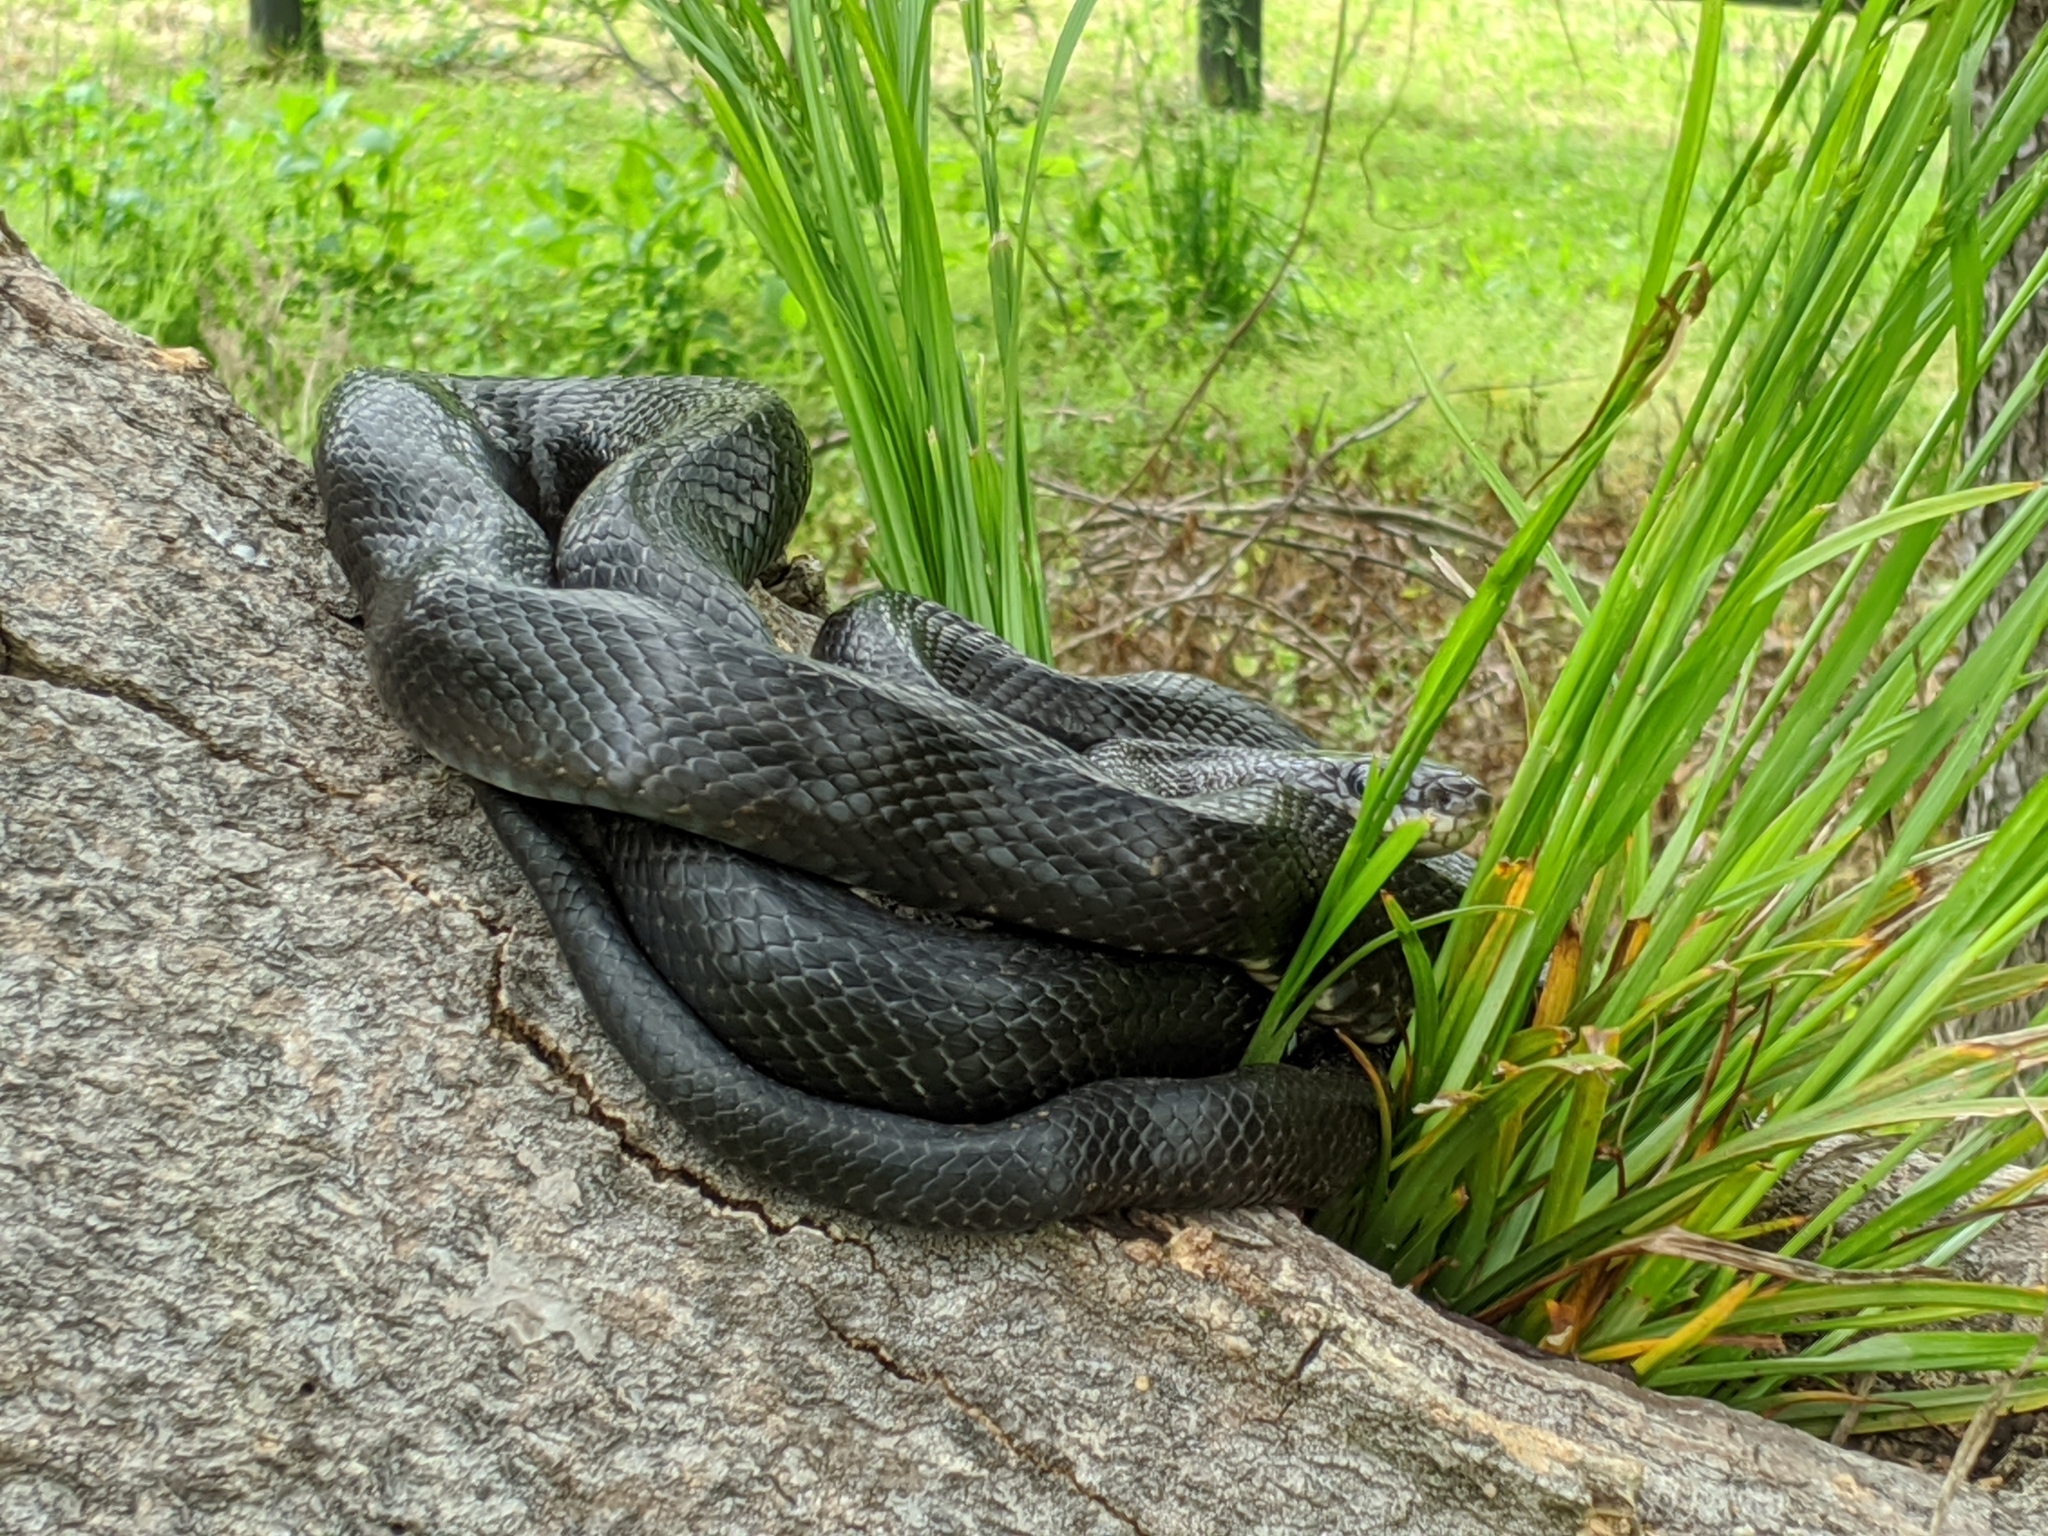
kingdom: Animalia
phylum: Chordata
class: Squamata
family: Colubridae
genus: Pantherophis
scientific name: Pantherophis alleghaniensis
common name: Eastern rat snake
